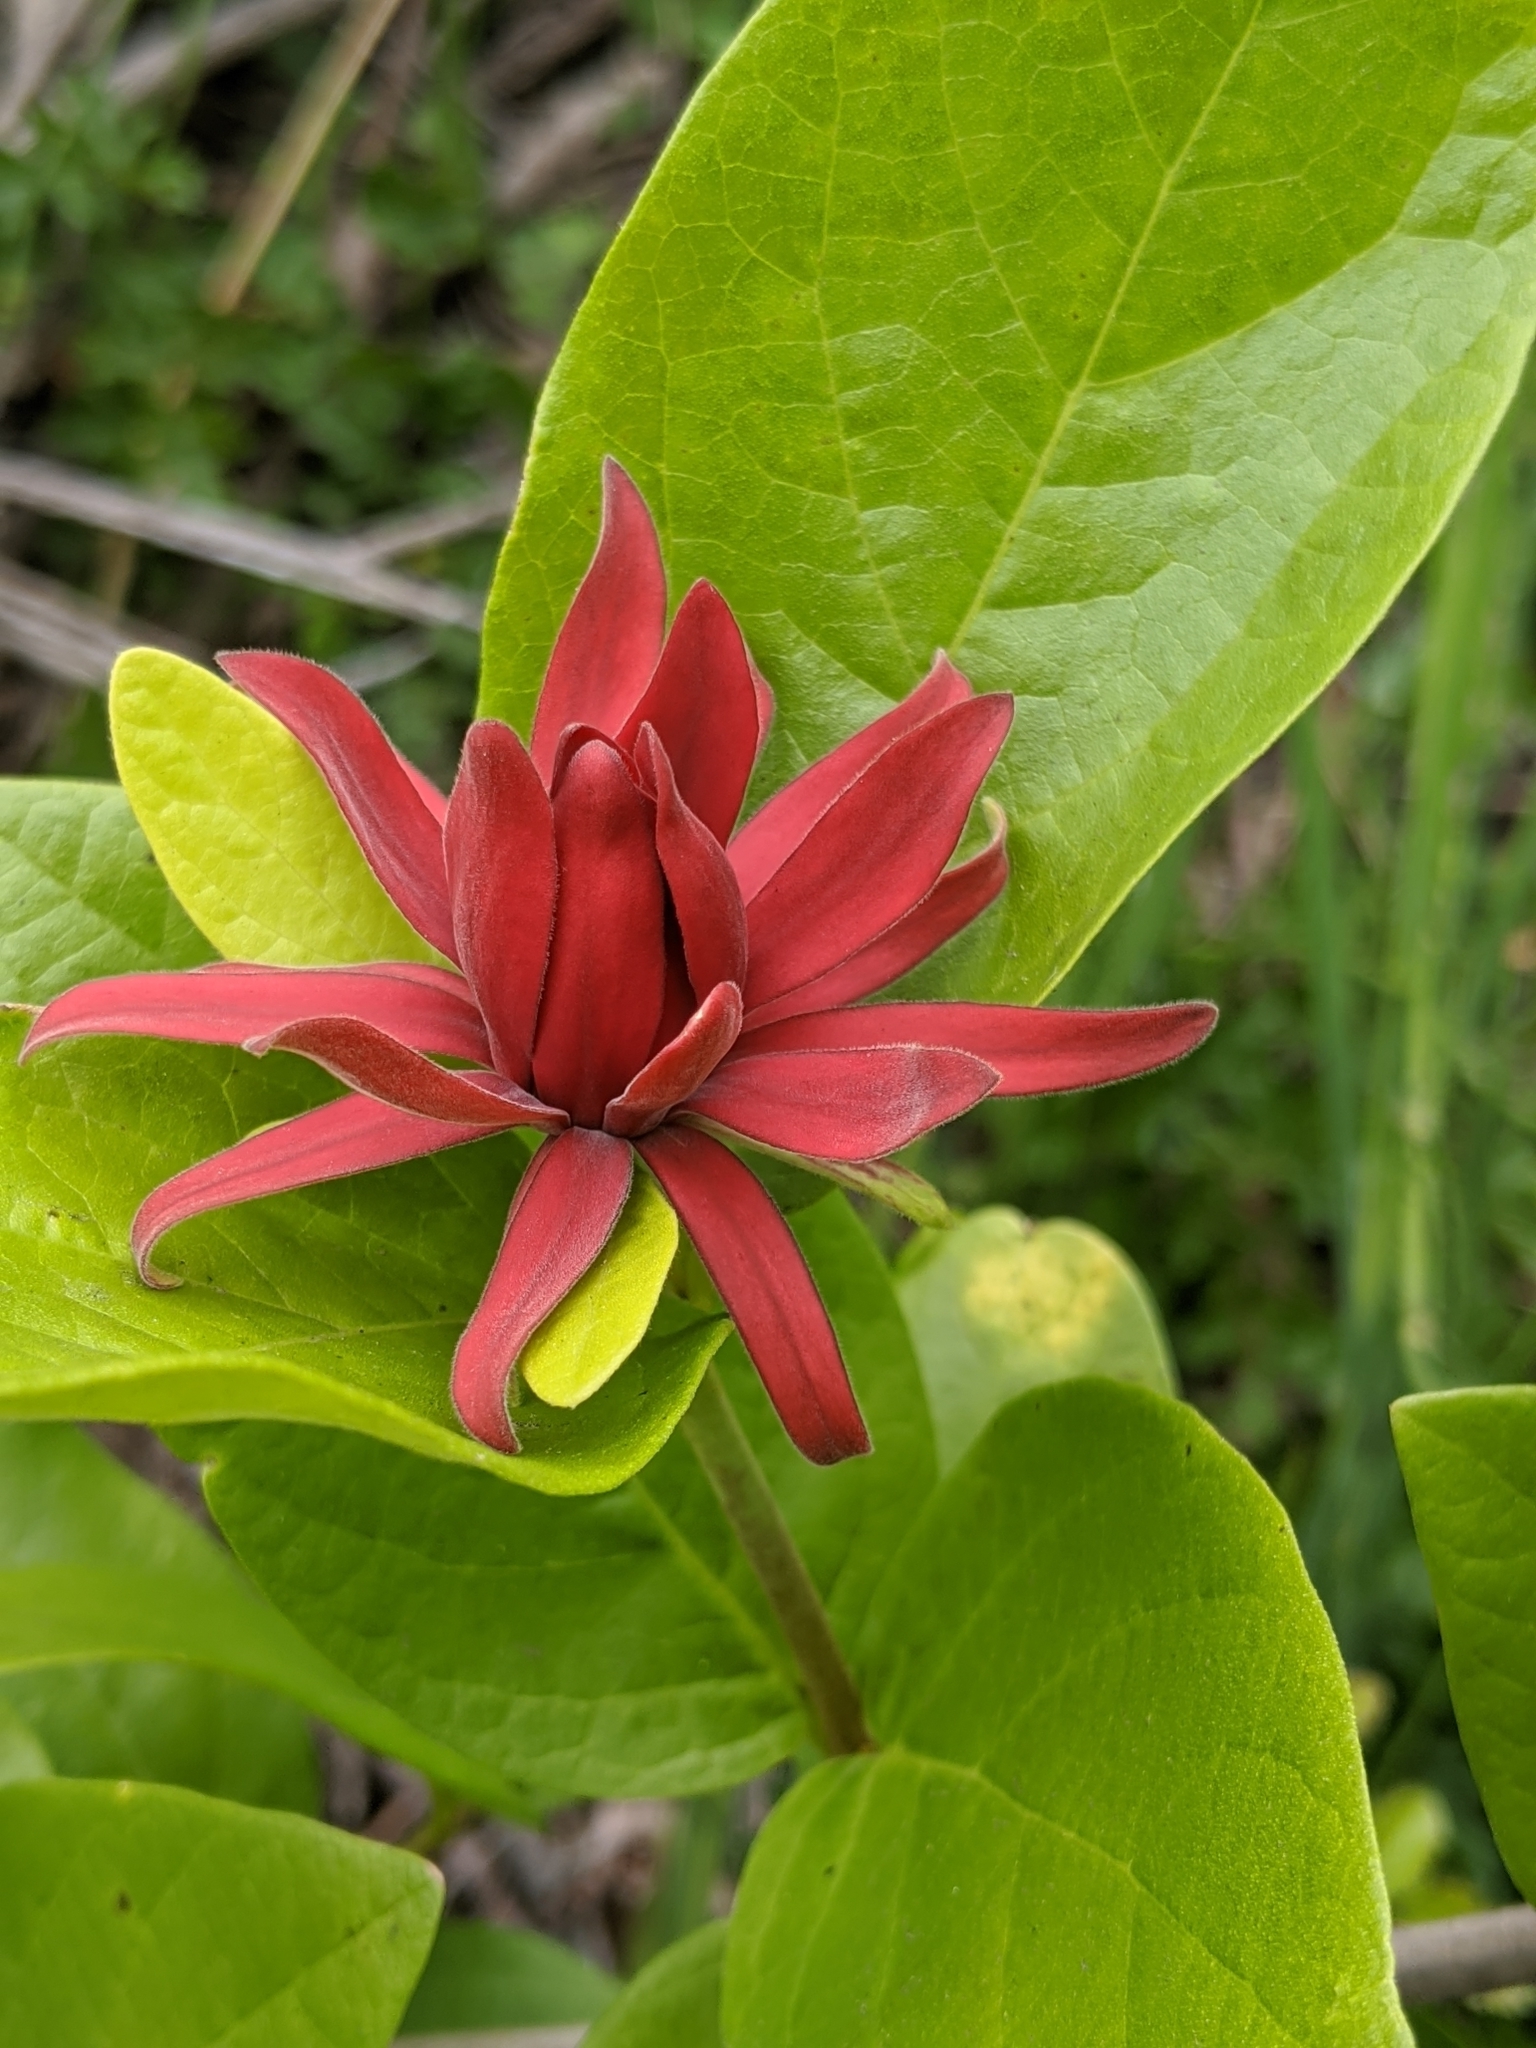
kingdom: Plantae
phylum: Tracheophyta
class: Magnoliopsida
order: Laurales
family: Calycanthaceae
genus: Calycanthus
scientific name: Calycanthus occidentalis
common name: California spicebush
